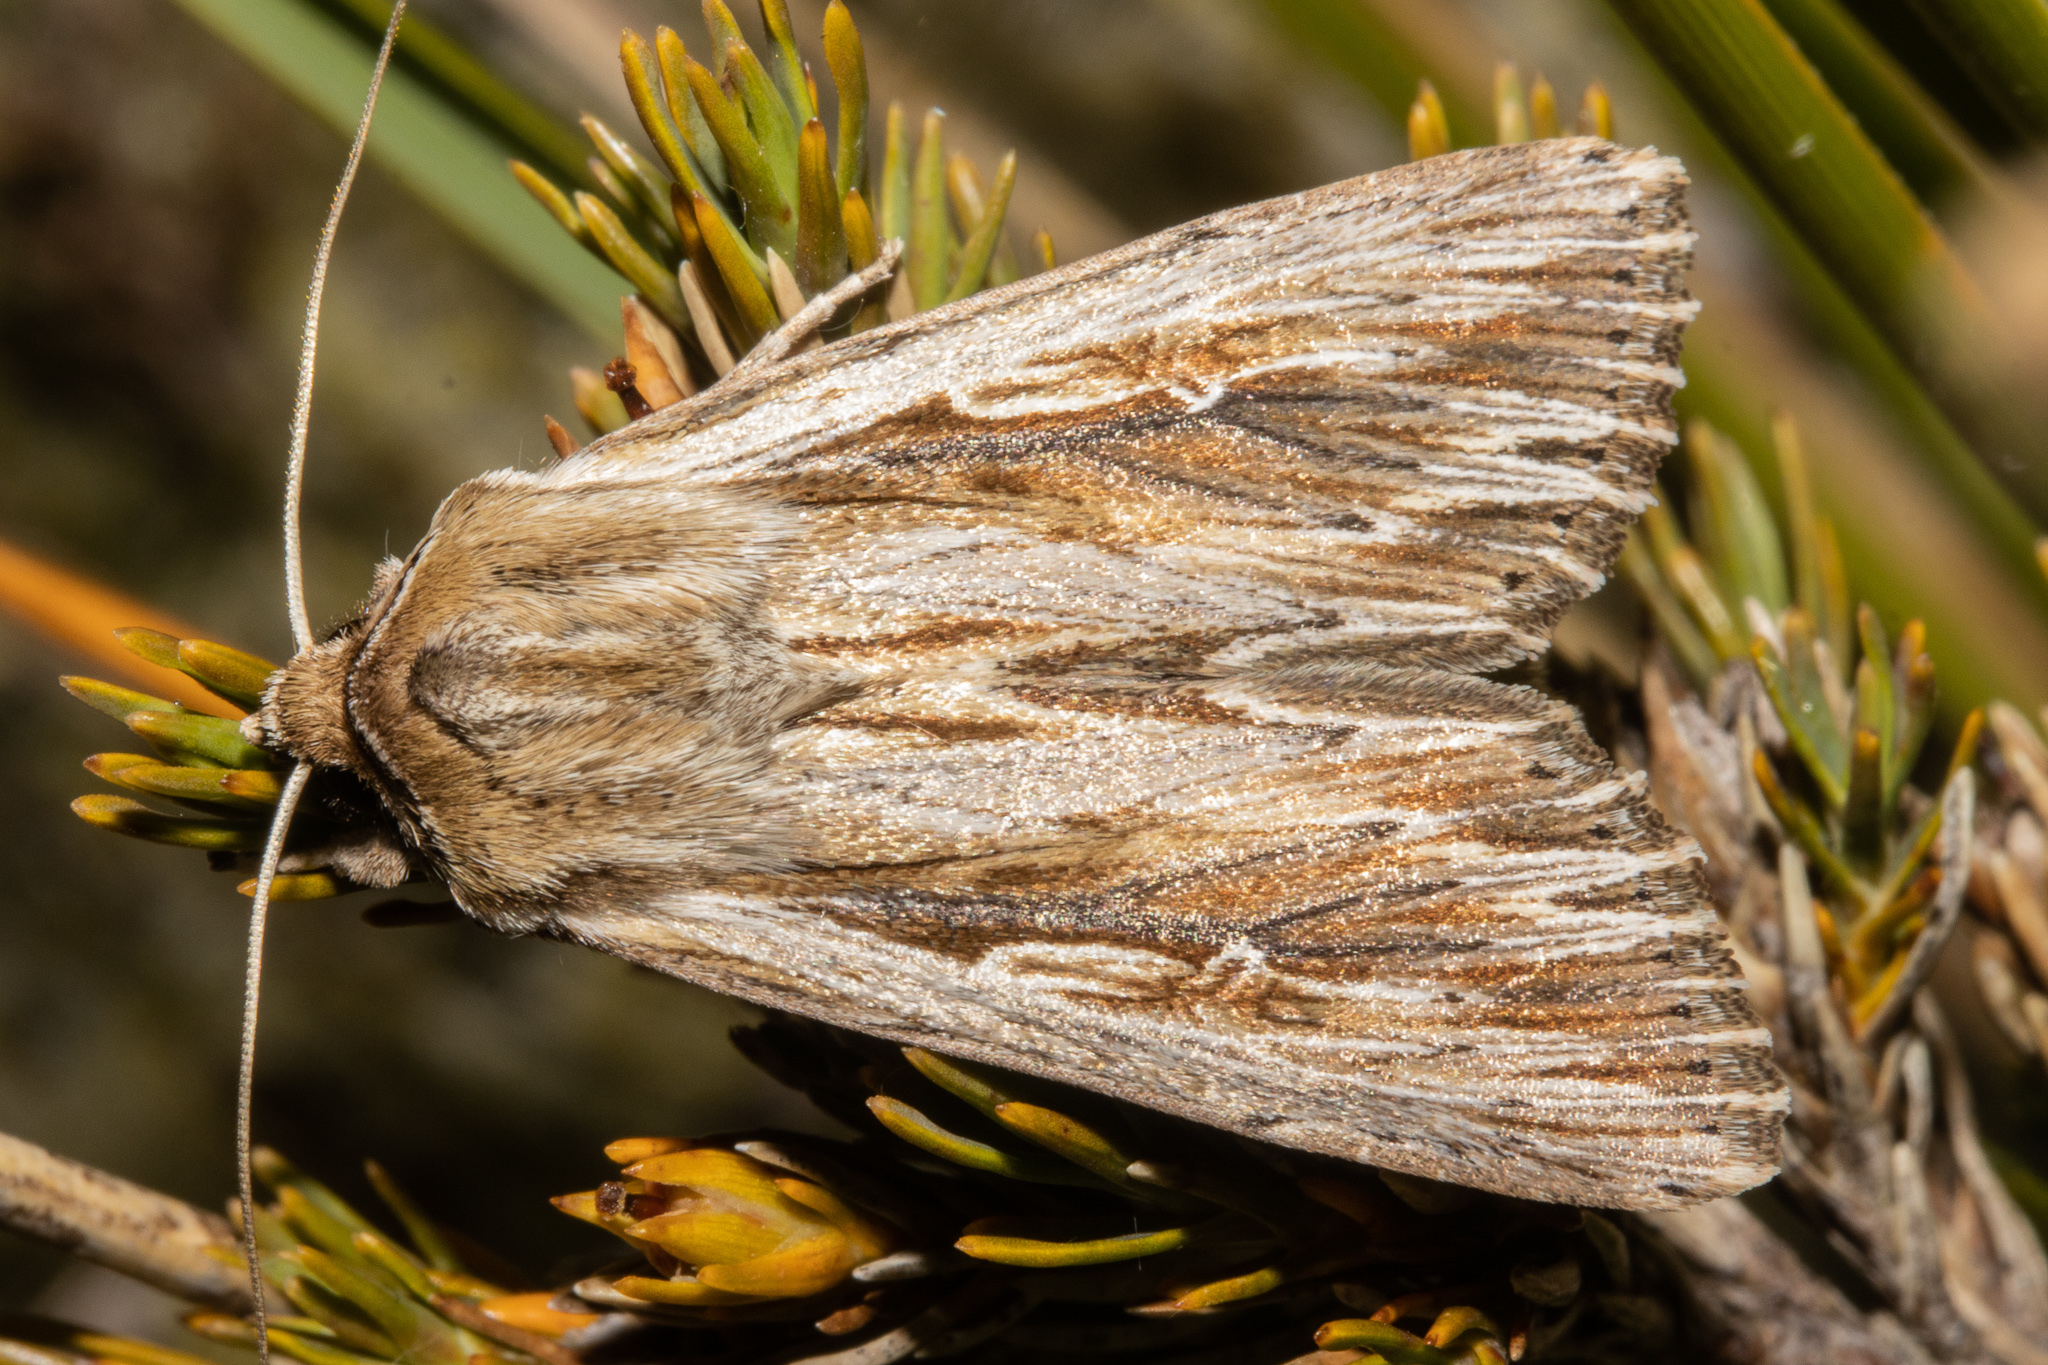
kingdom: Animalia
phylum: Arthropoda
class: Insecta
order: Lepidoptera
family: Noctuidae
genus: Persectania
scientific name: Persectania aversa
